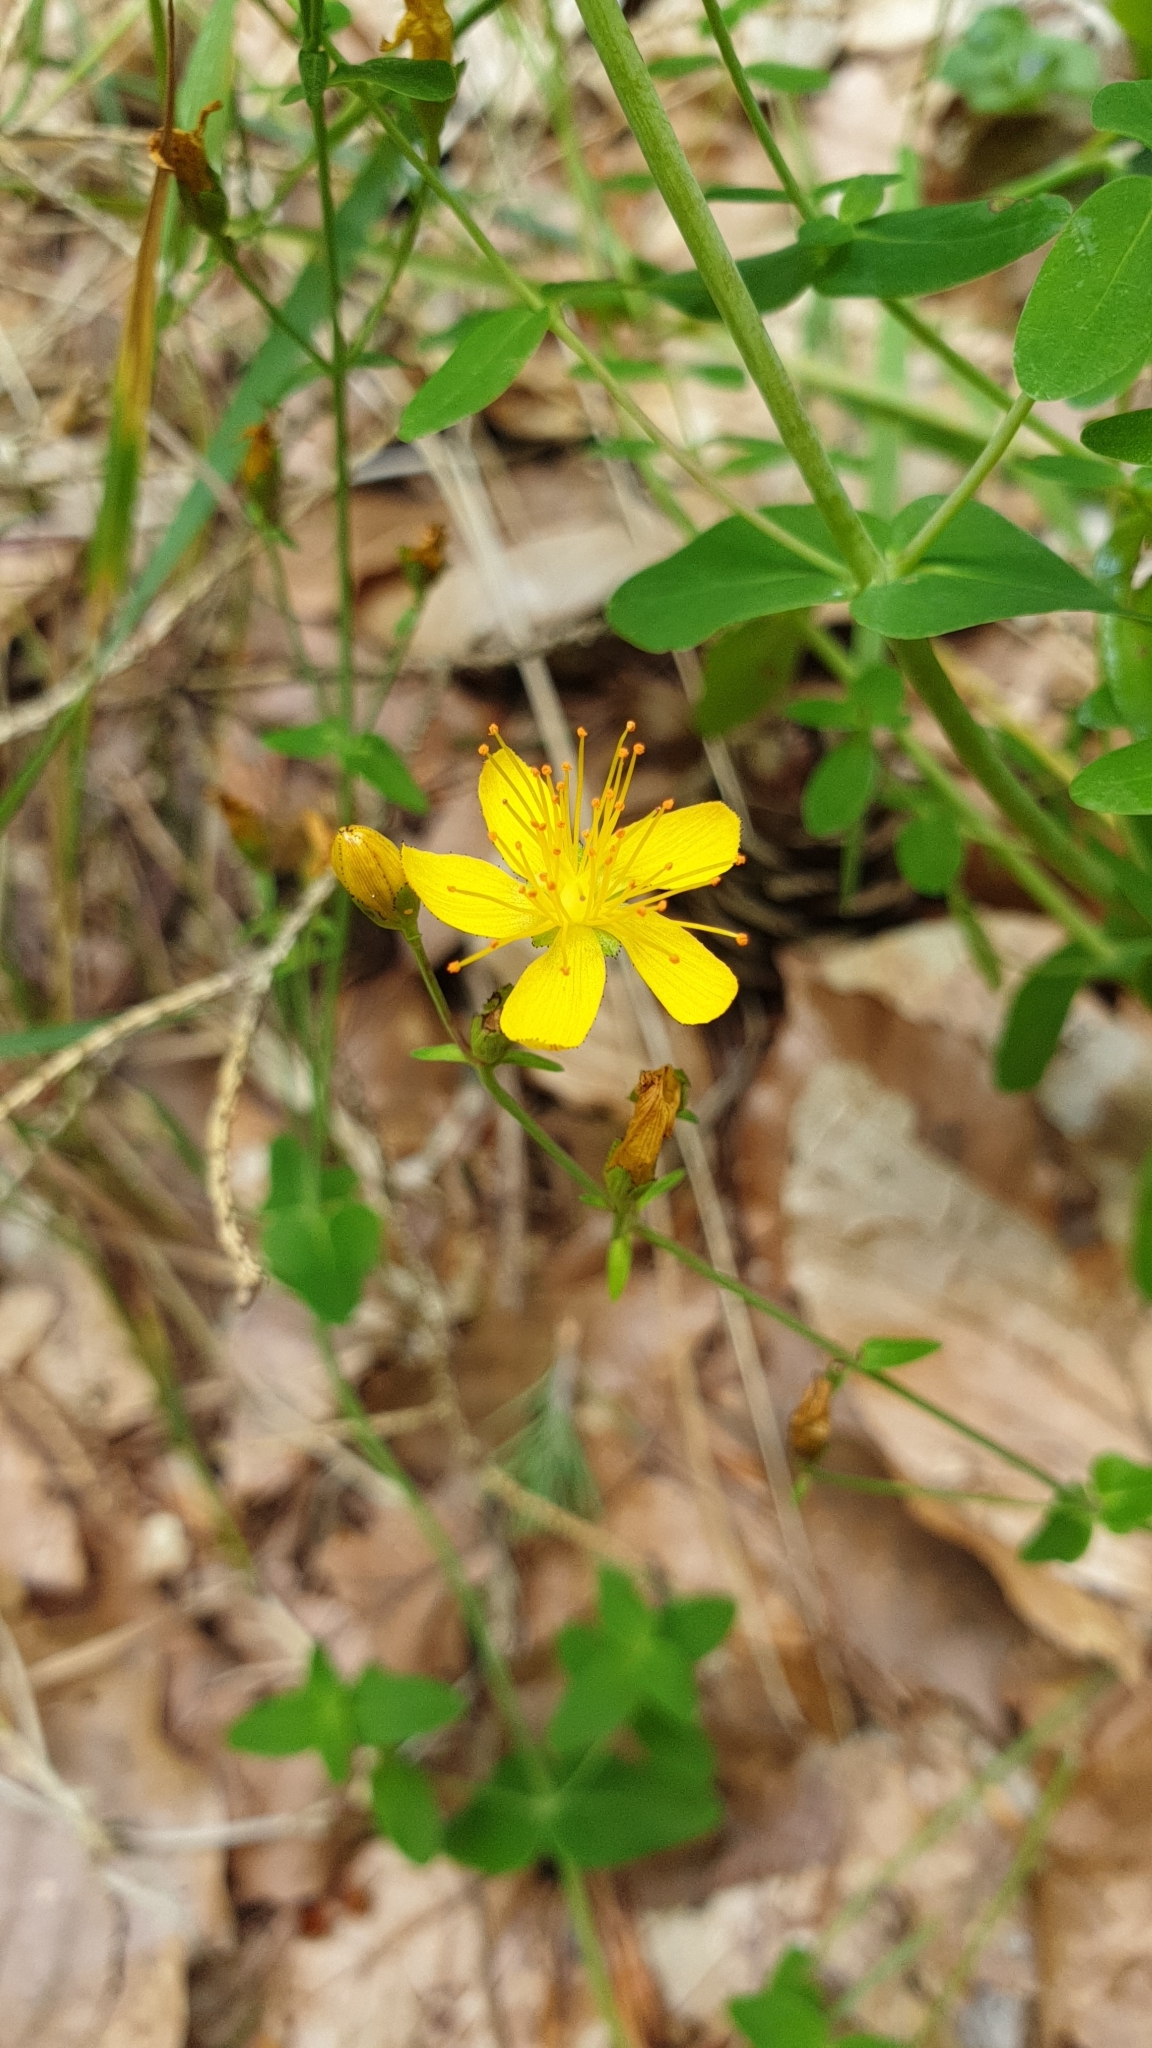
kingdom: Plantae
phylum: Tracheophyta
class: Magnoliopsida
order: Malpighiales
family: Hypericaceae
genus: Hypericum
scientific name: Hypericum pulchrum
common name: Slender st. john's-wort
